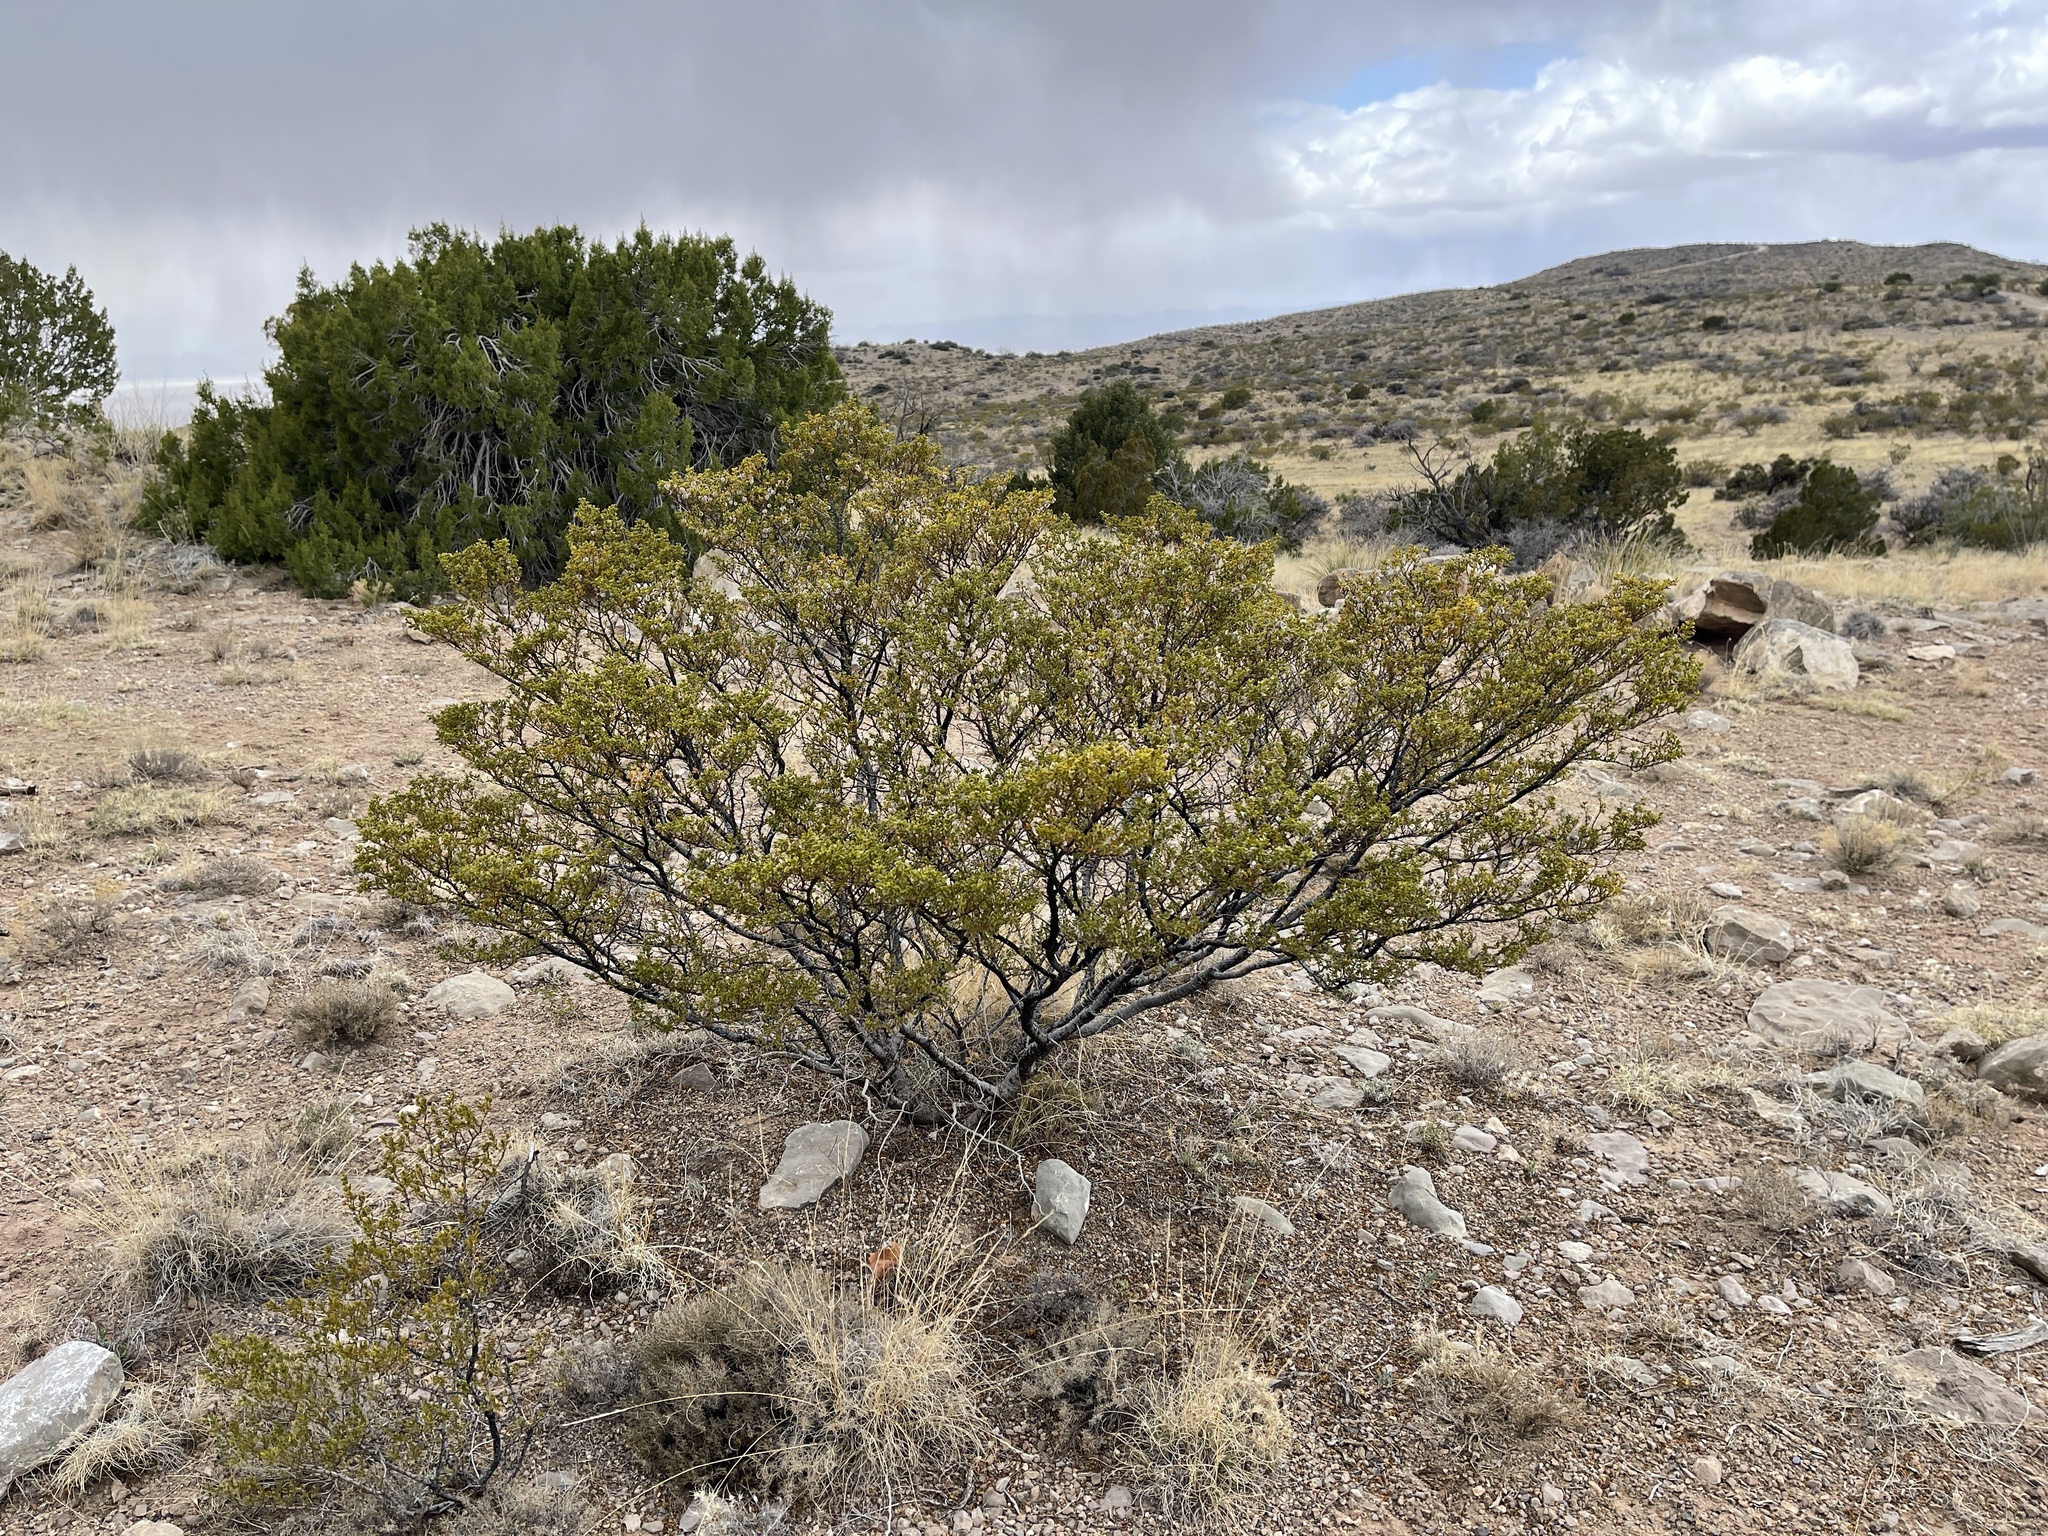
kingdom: Plantae
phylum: Tracheophyta
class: Magnoliopsida
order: Zygophyllales
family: Zygophyllaceae
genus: Larrea
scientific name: Larrea tridentata
